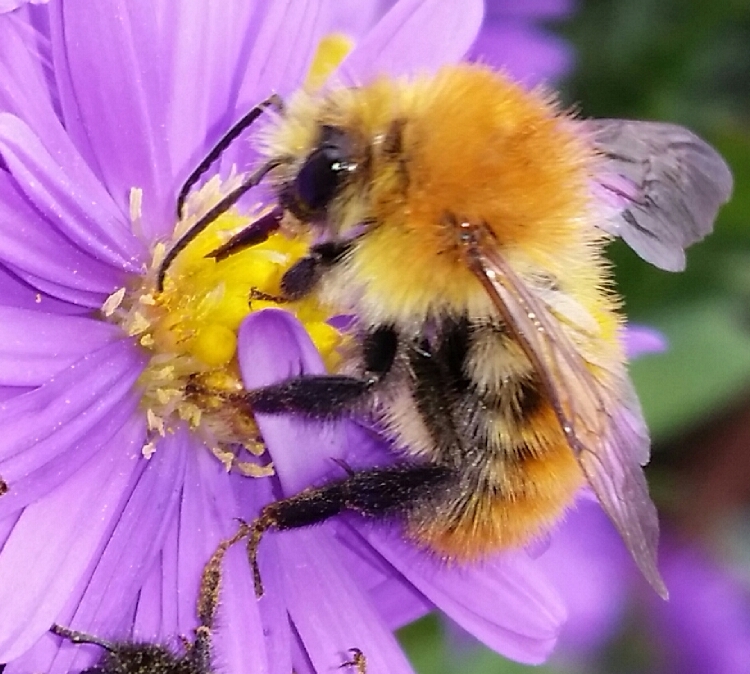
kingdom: Animalia
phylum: Arthropoda
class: Insecta
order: Hymenoptera
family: Apidae
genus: Bombus
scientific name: Bombus pascuorum
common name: Common carder bee
